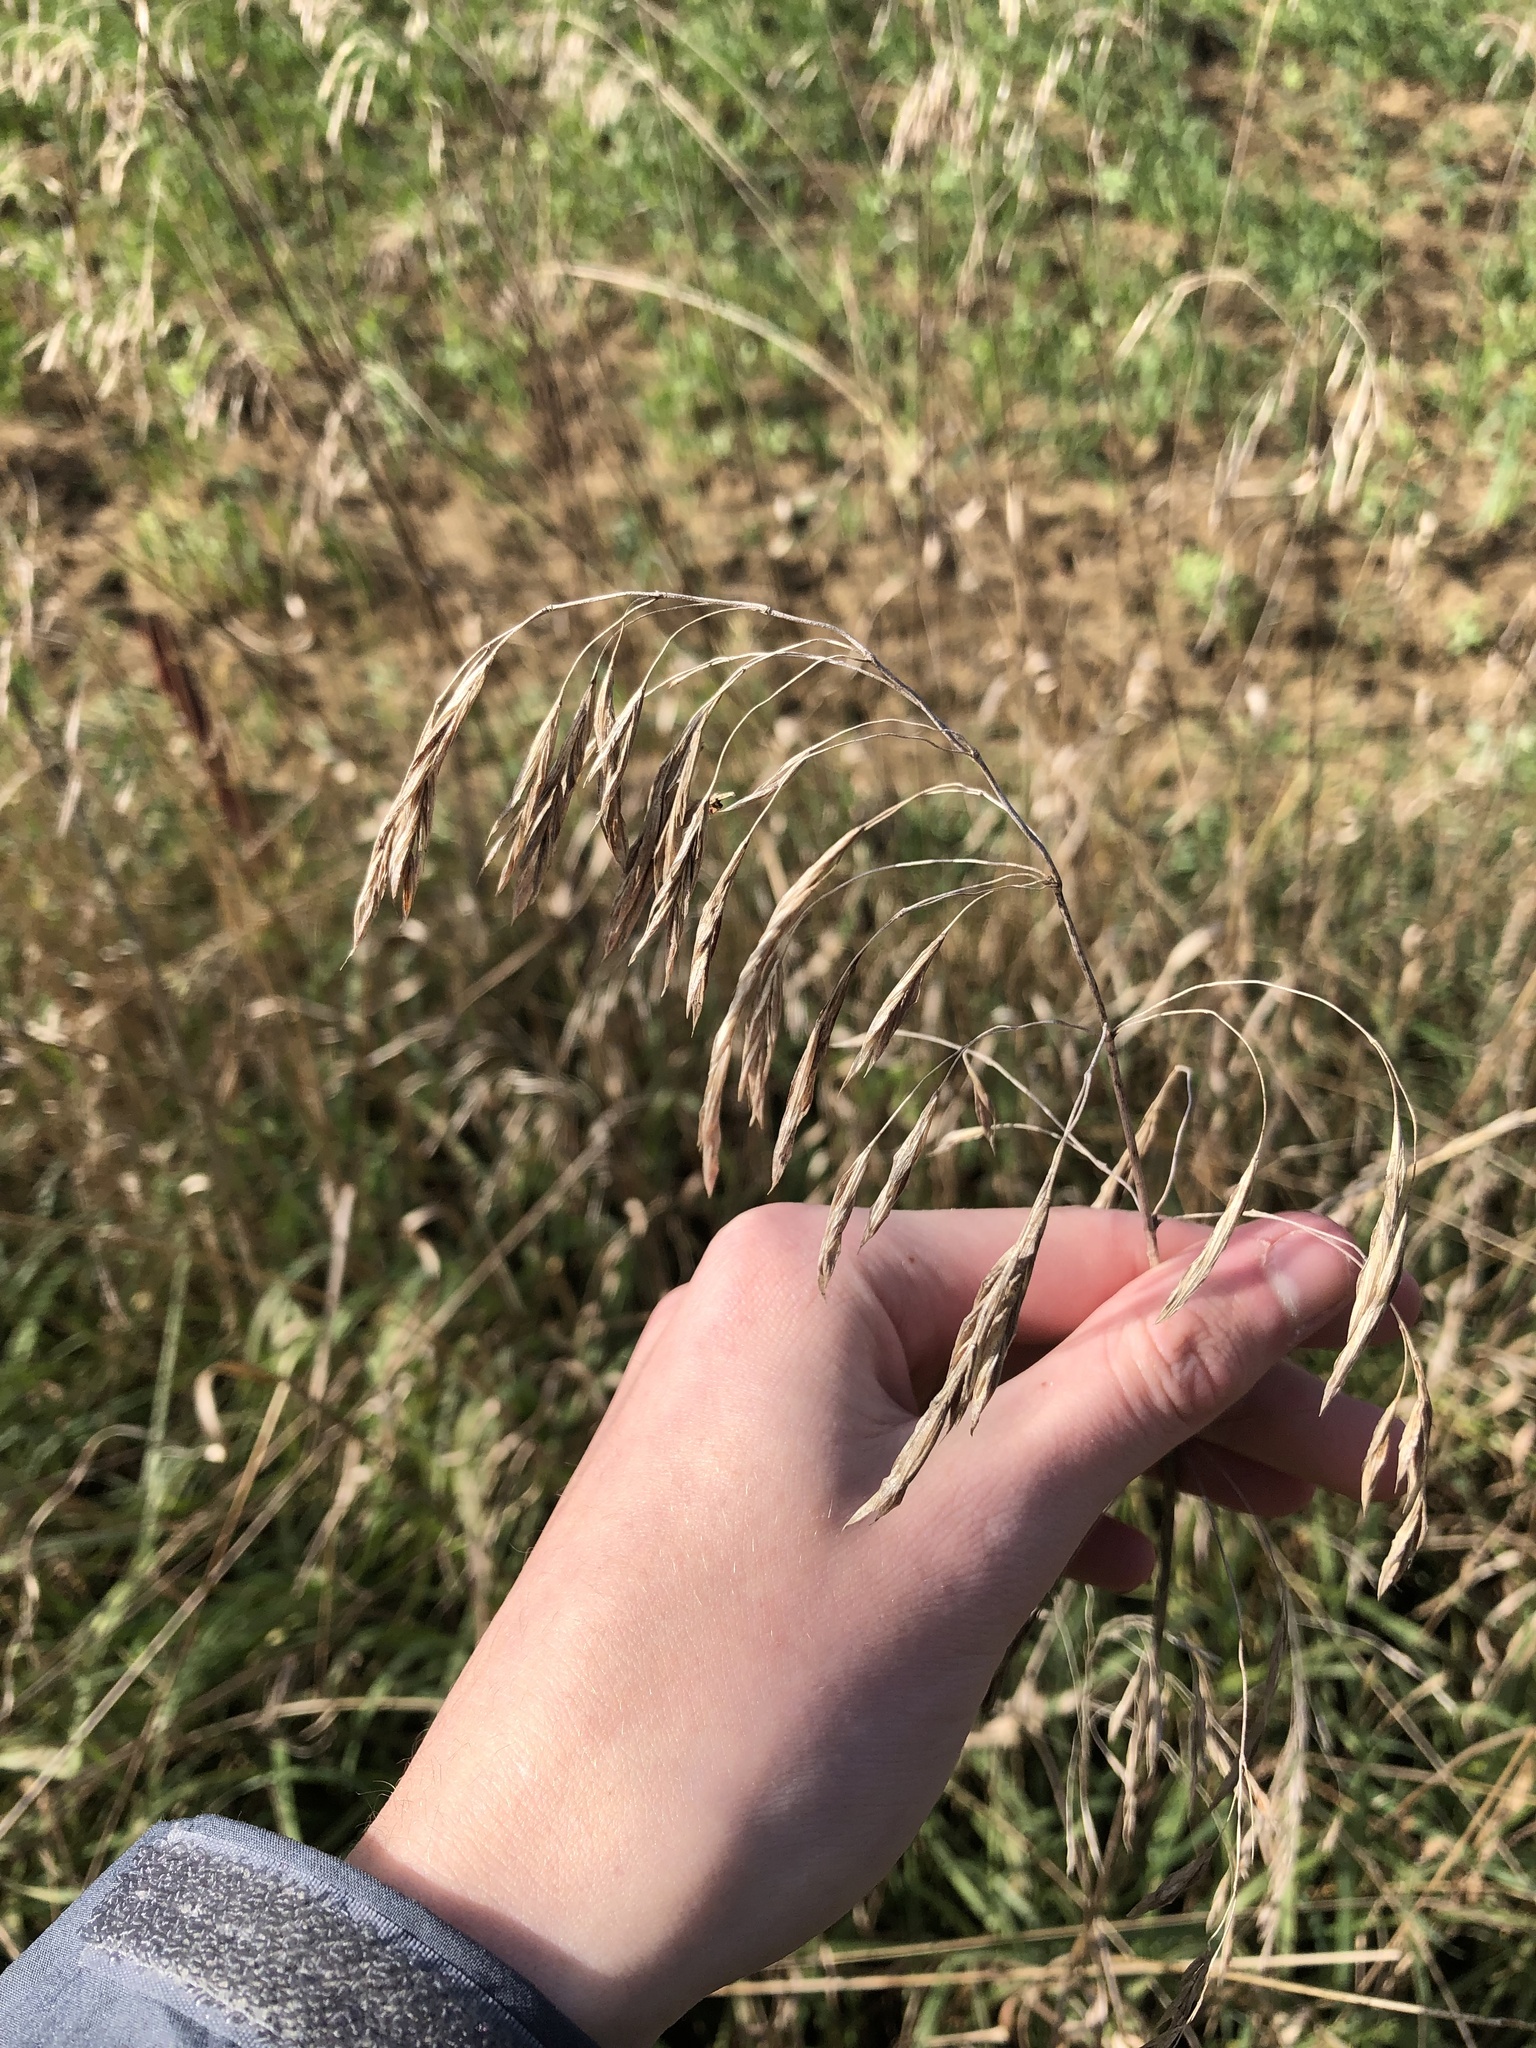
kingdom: Plantae
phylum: Tracheophyta
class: Liliopsida
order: Poales
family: Poaceae
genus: Bromus
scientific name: Bromus inermis
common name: Smooth brome
